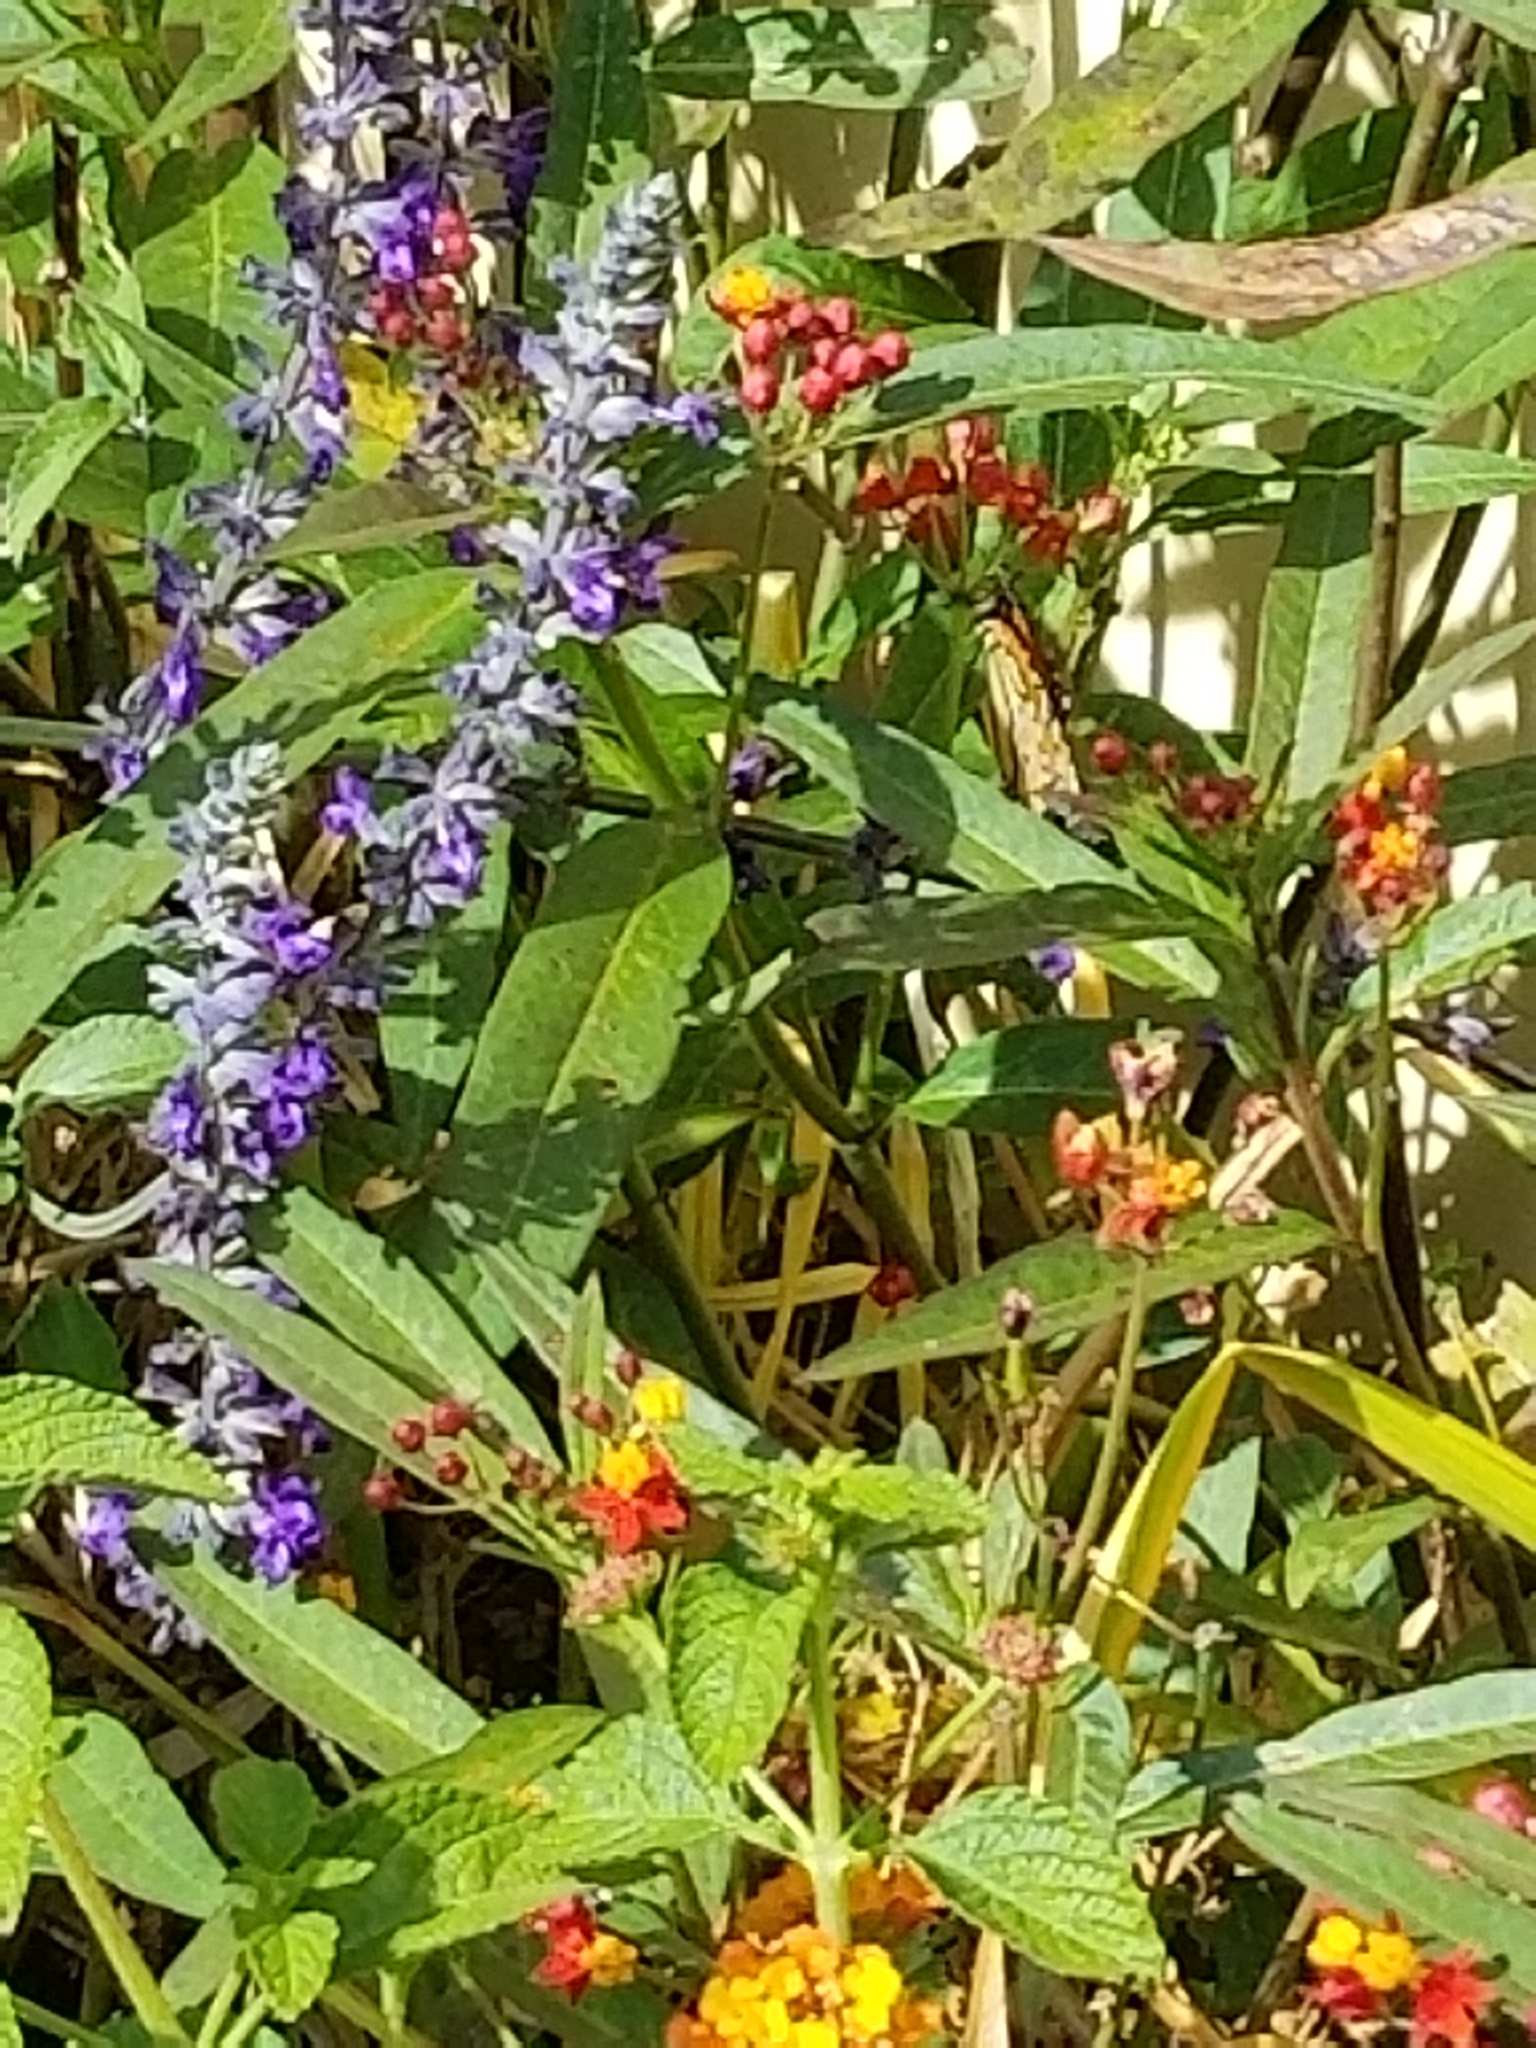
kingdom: Animalia
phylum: Arthropoda
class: Insecta
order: Lepidoptera
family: Nymphalidae
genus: Danaus
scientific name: Danaus plexippus
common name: Monarch
